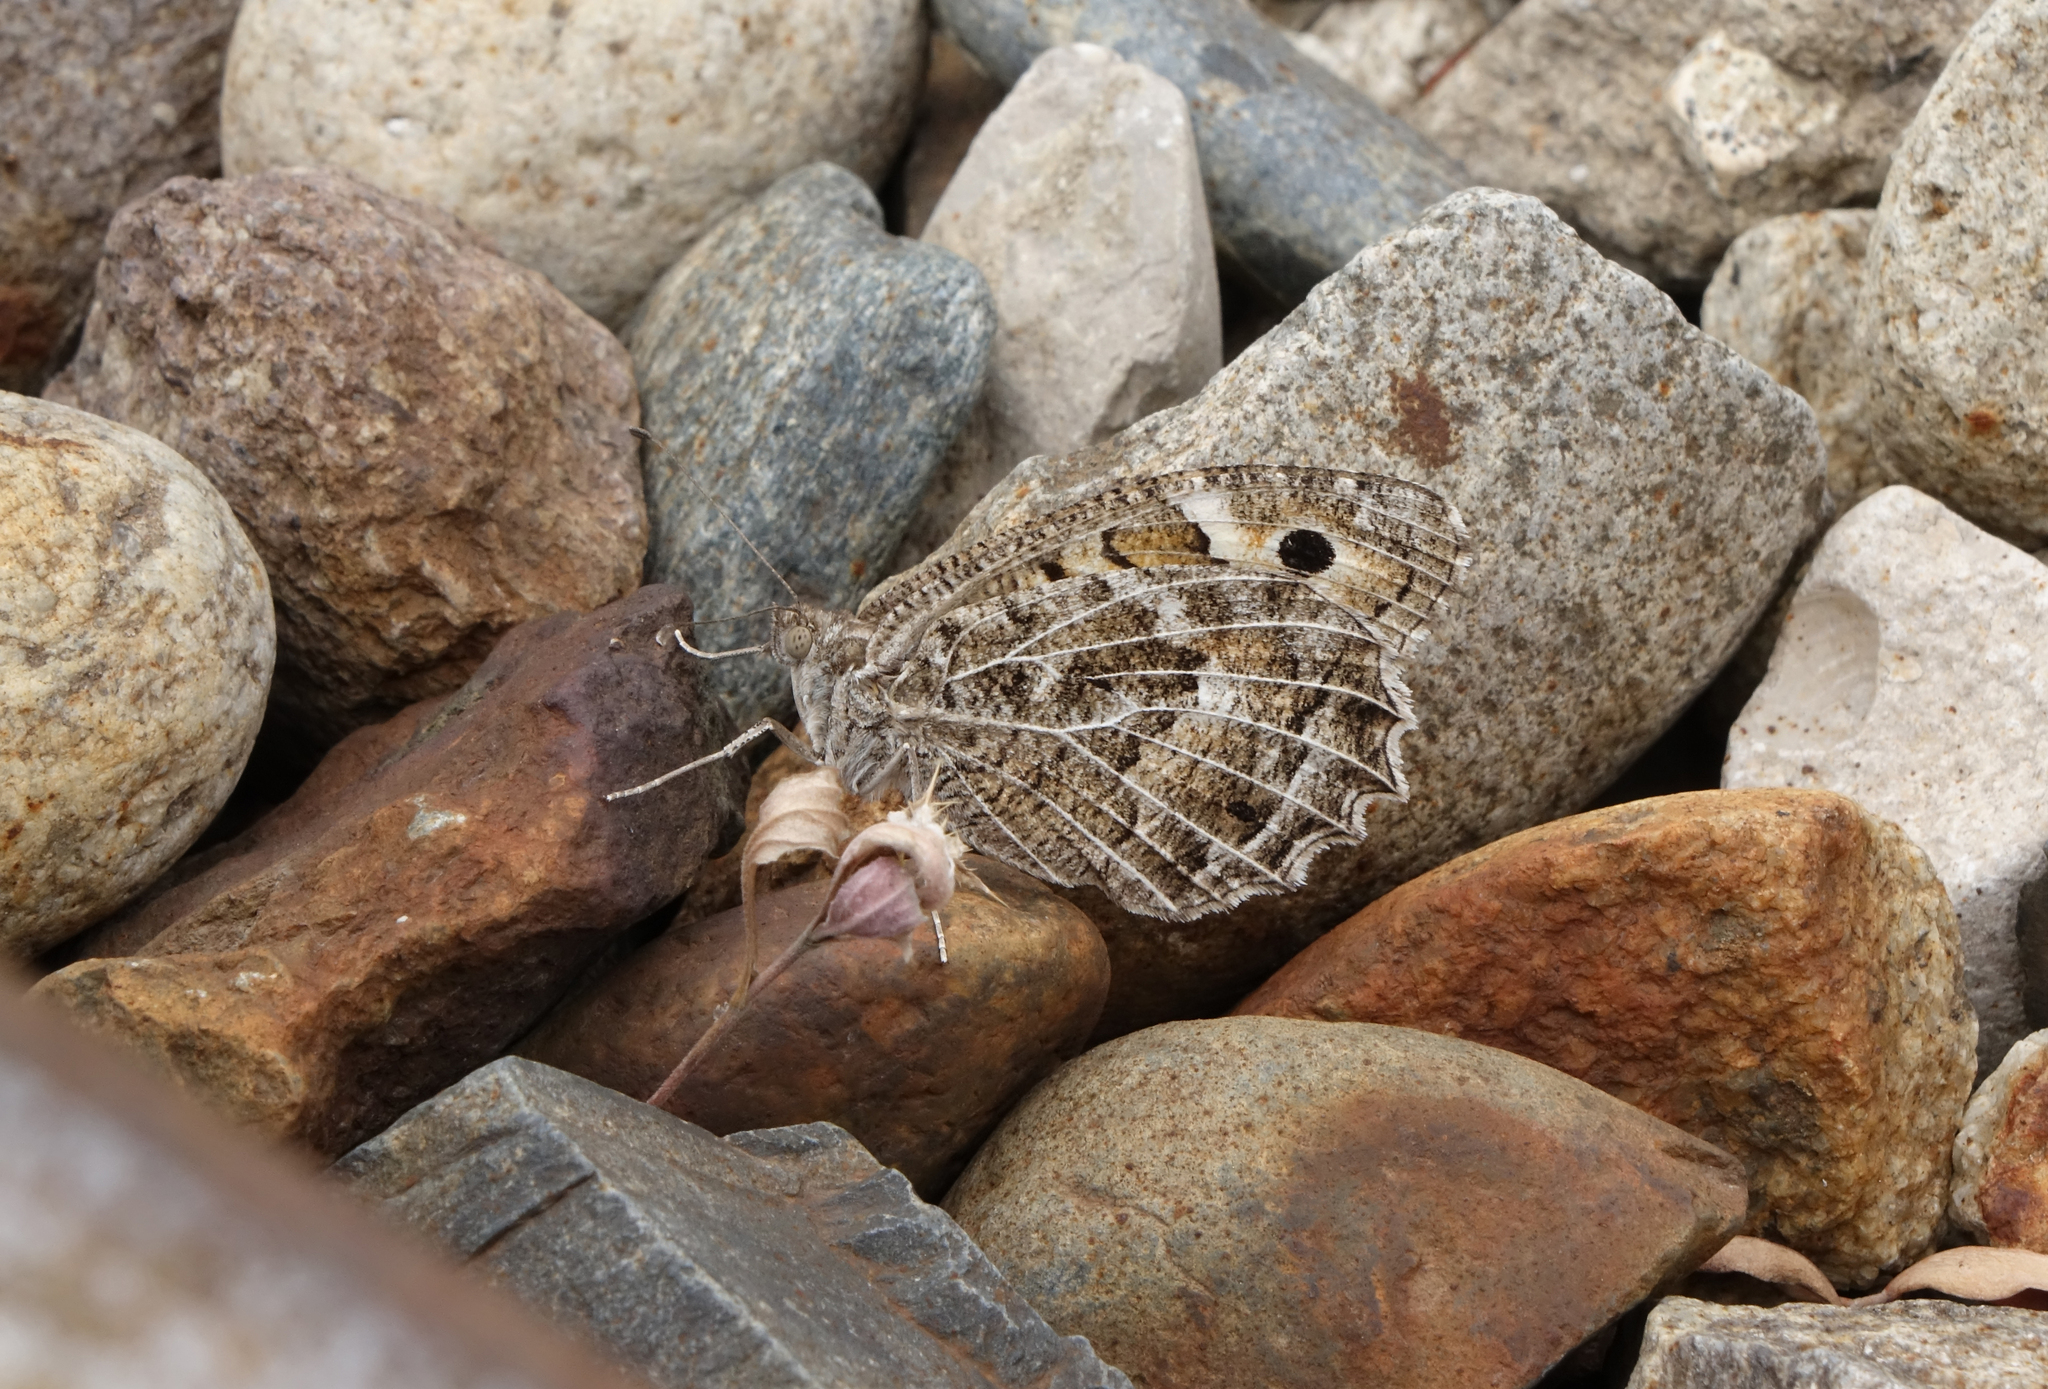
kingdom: Animalia
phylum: Arthropoda
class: Insecta
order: Lepidoptera
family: Nymphalidae
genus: Satyrus
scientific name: Satyrus Chazara persephone
